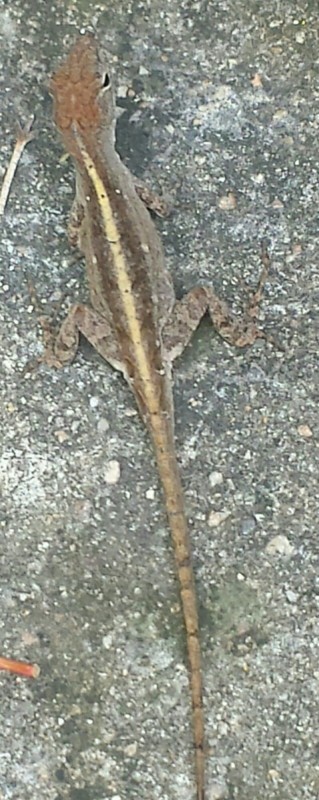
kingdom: Animalia
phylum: Chordata
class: Squamata
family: Dactyloidae
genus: Anolis
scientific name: Anolis sagrei
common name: Brown anole
